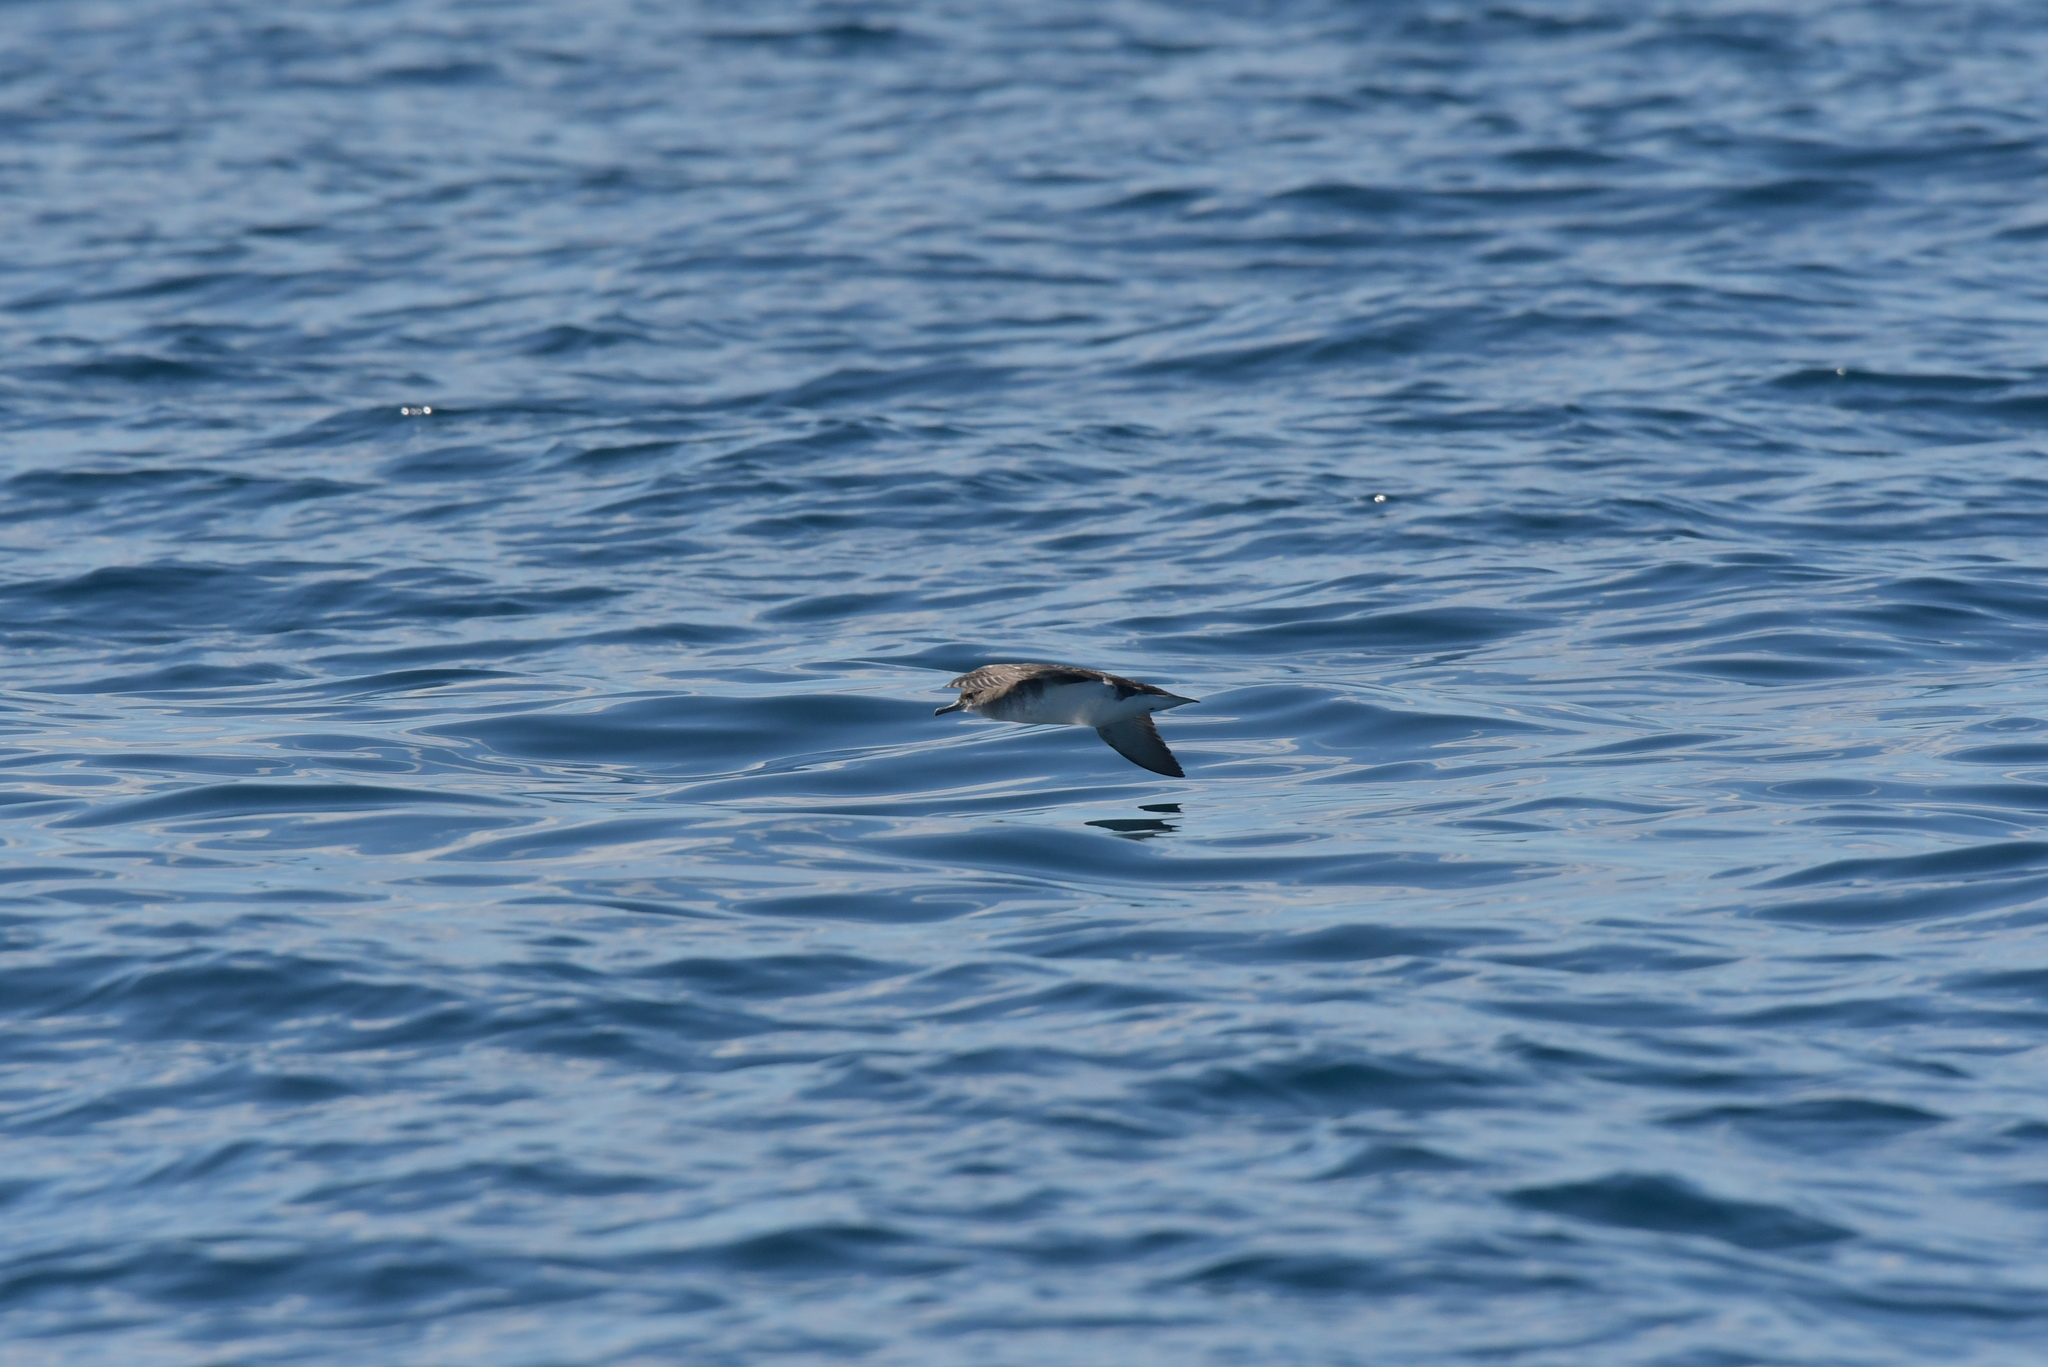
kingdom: Animalia
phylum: Chordata
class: Aves
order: Procellariiformes
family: Procellariidae
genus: Puffinus
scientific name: Puffinus gavia
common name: Fluttering shearwater
